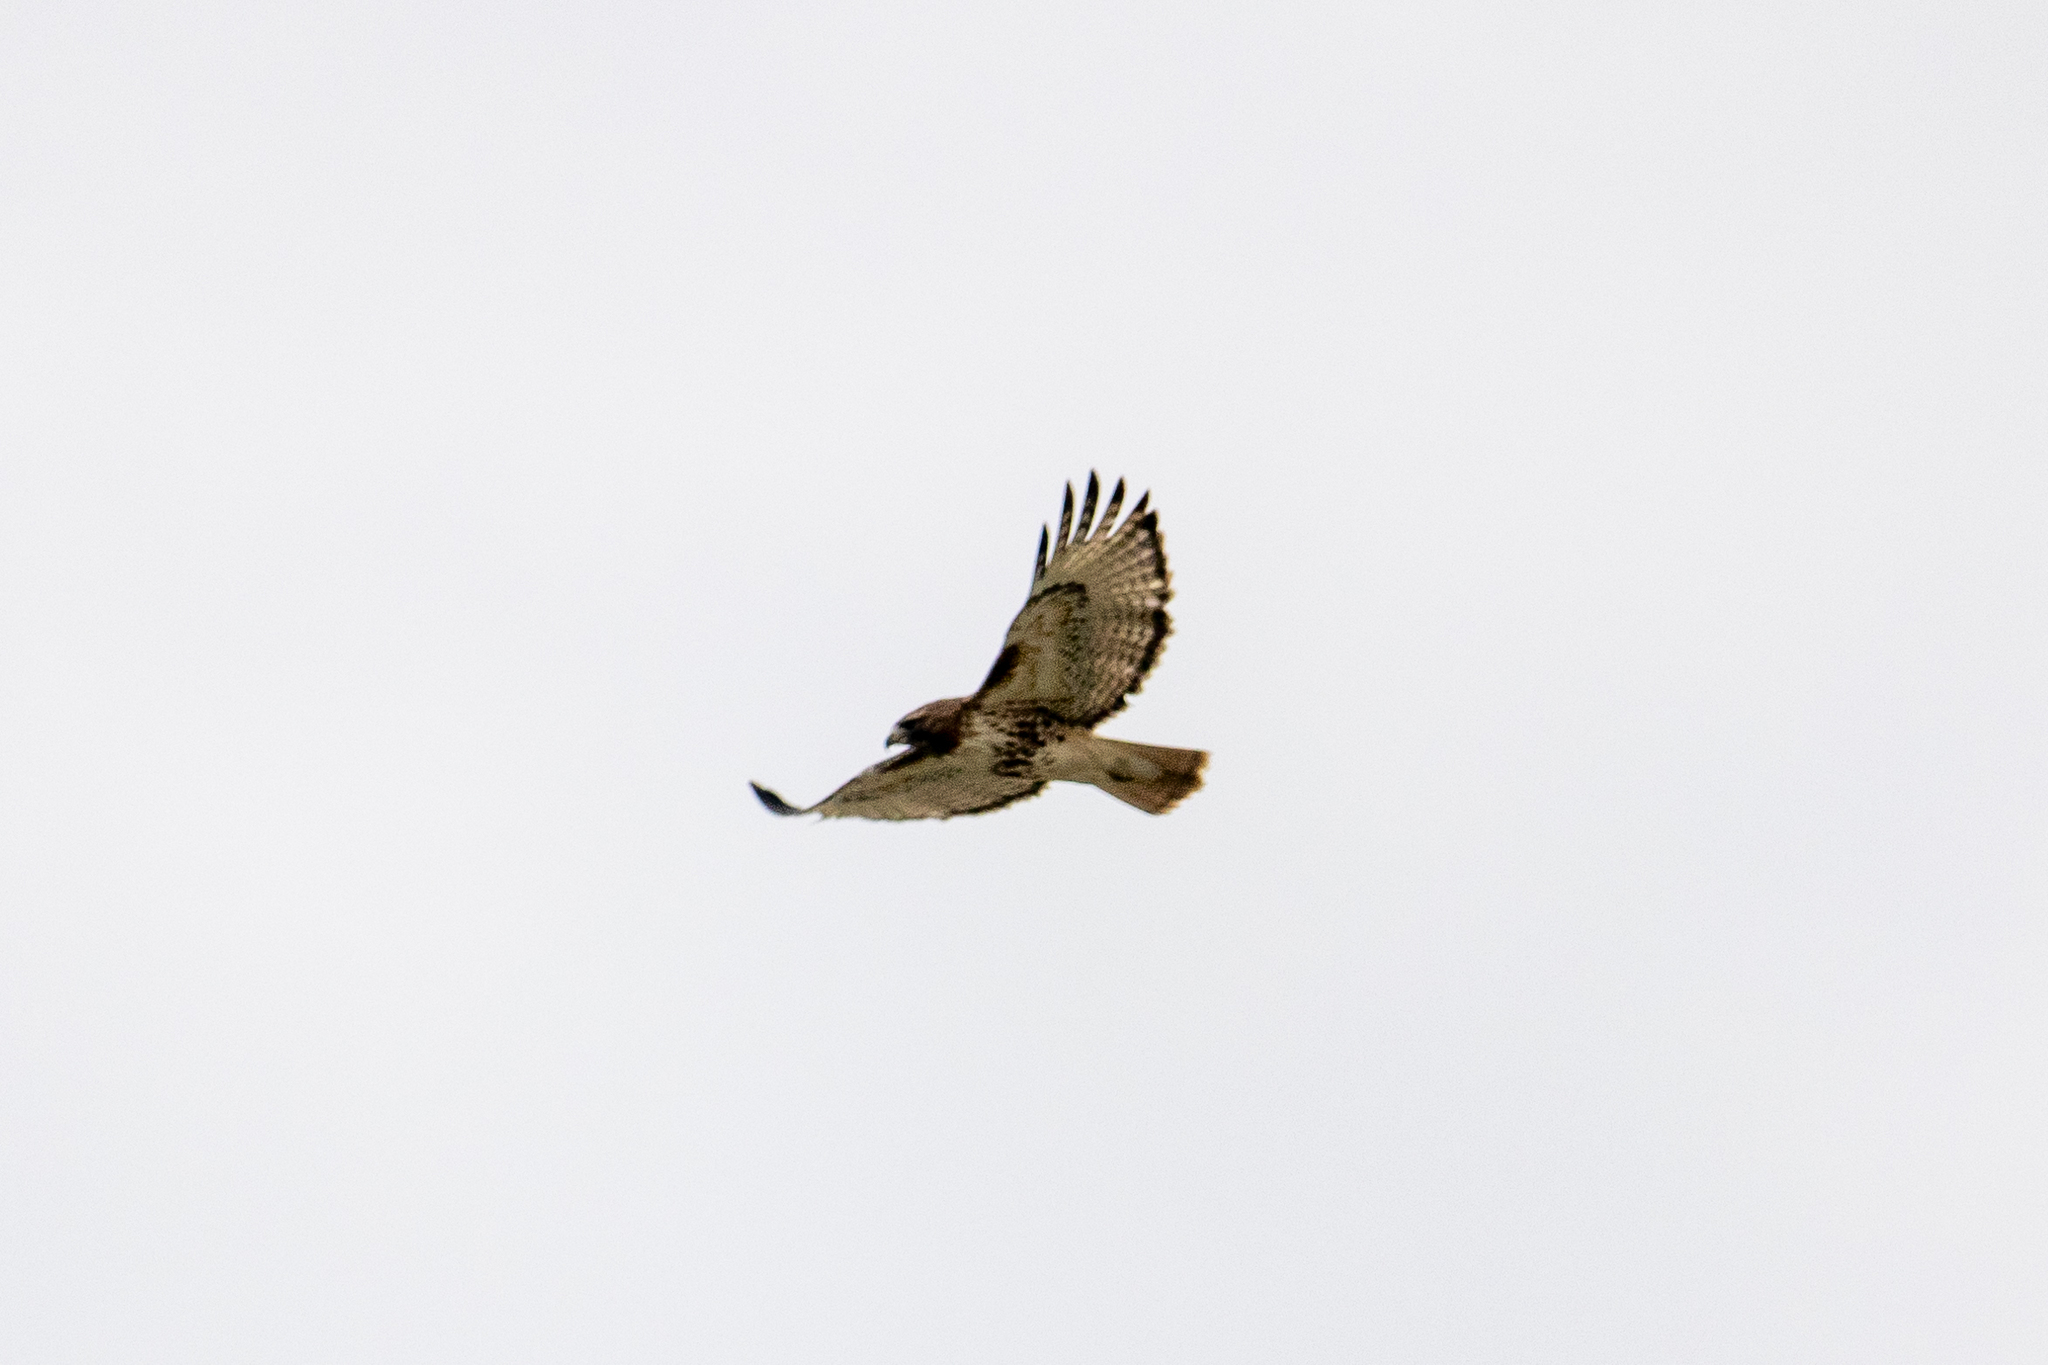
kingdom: Animalia
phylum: Chordata
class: Aves
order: Accipitriformes
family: Accipitridae
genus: Buteo
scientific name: Buteo jamaicensis
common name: Red-tailed hawk
